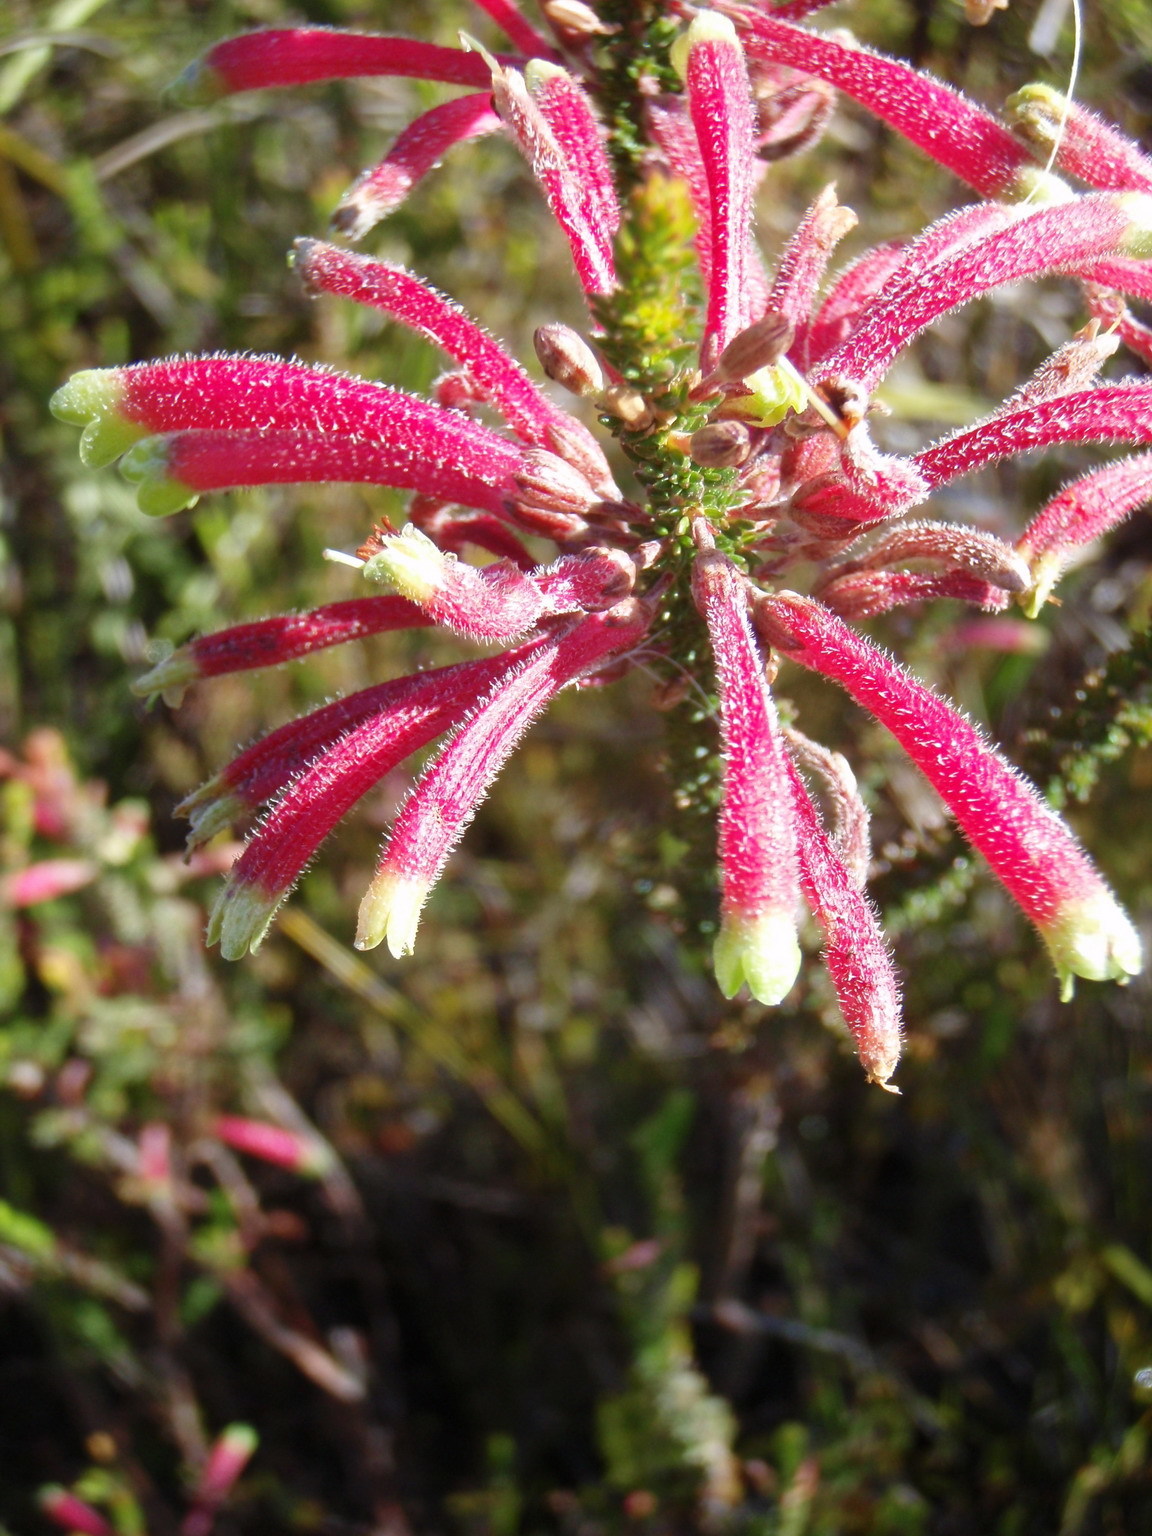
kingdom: Plantae
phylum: Tracheophyta
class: Magnoliopsida
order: Ericales
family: Ericaceae
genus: Erica
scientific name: Erica densifolia
